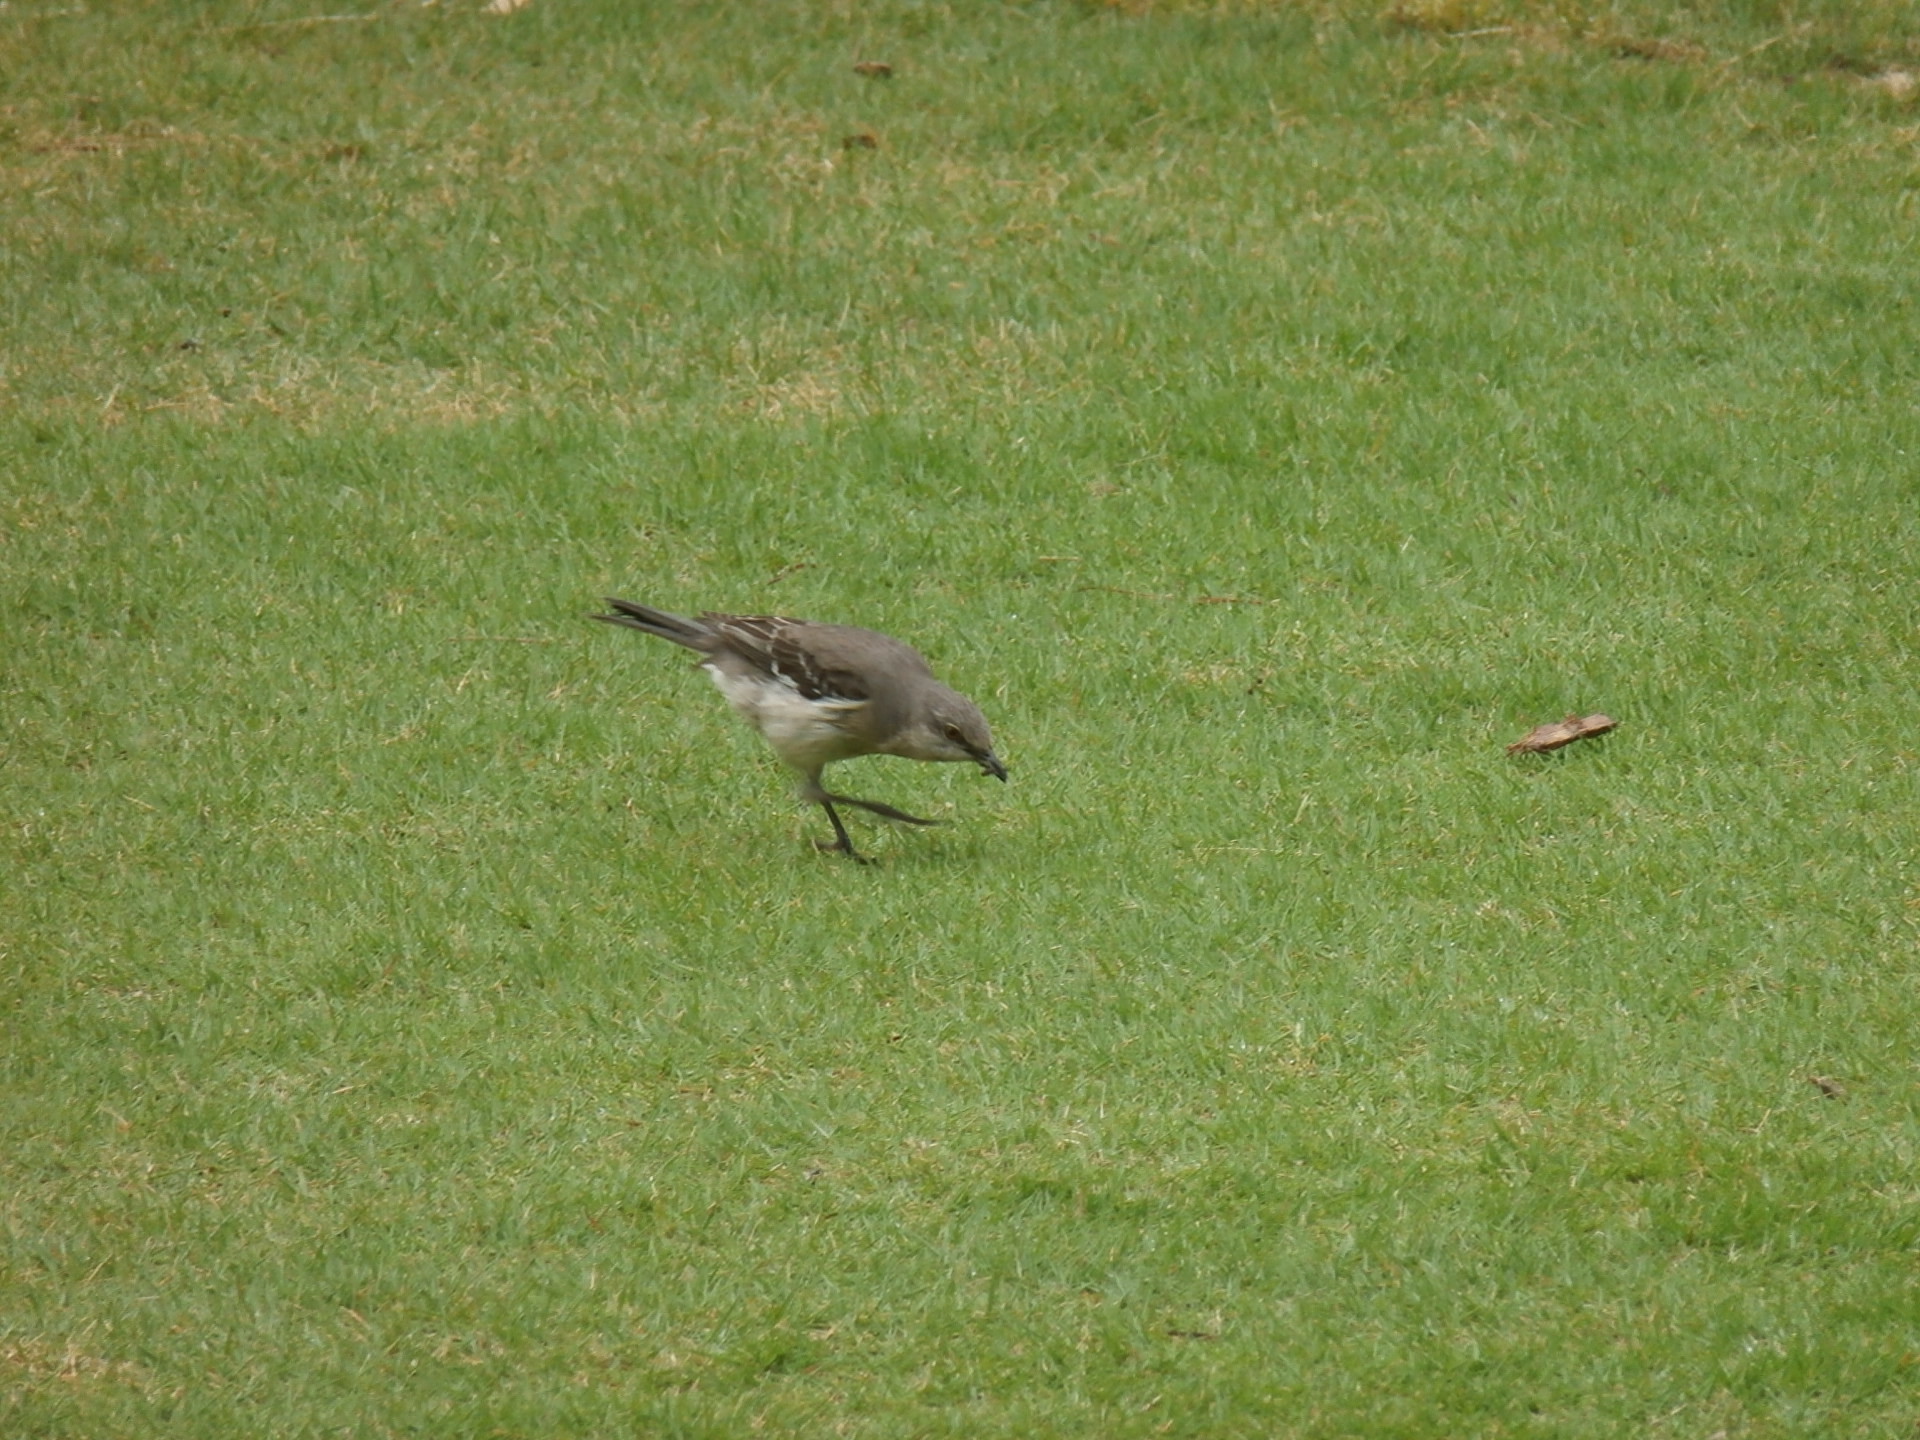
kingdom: Animalia
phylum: Chordata
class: Aves
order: Passeriformes
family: Mimidae
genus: Mimus
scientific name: Mimus polyglottos
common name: Northern mockingbird
